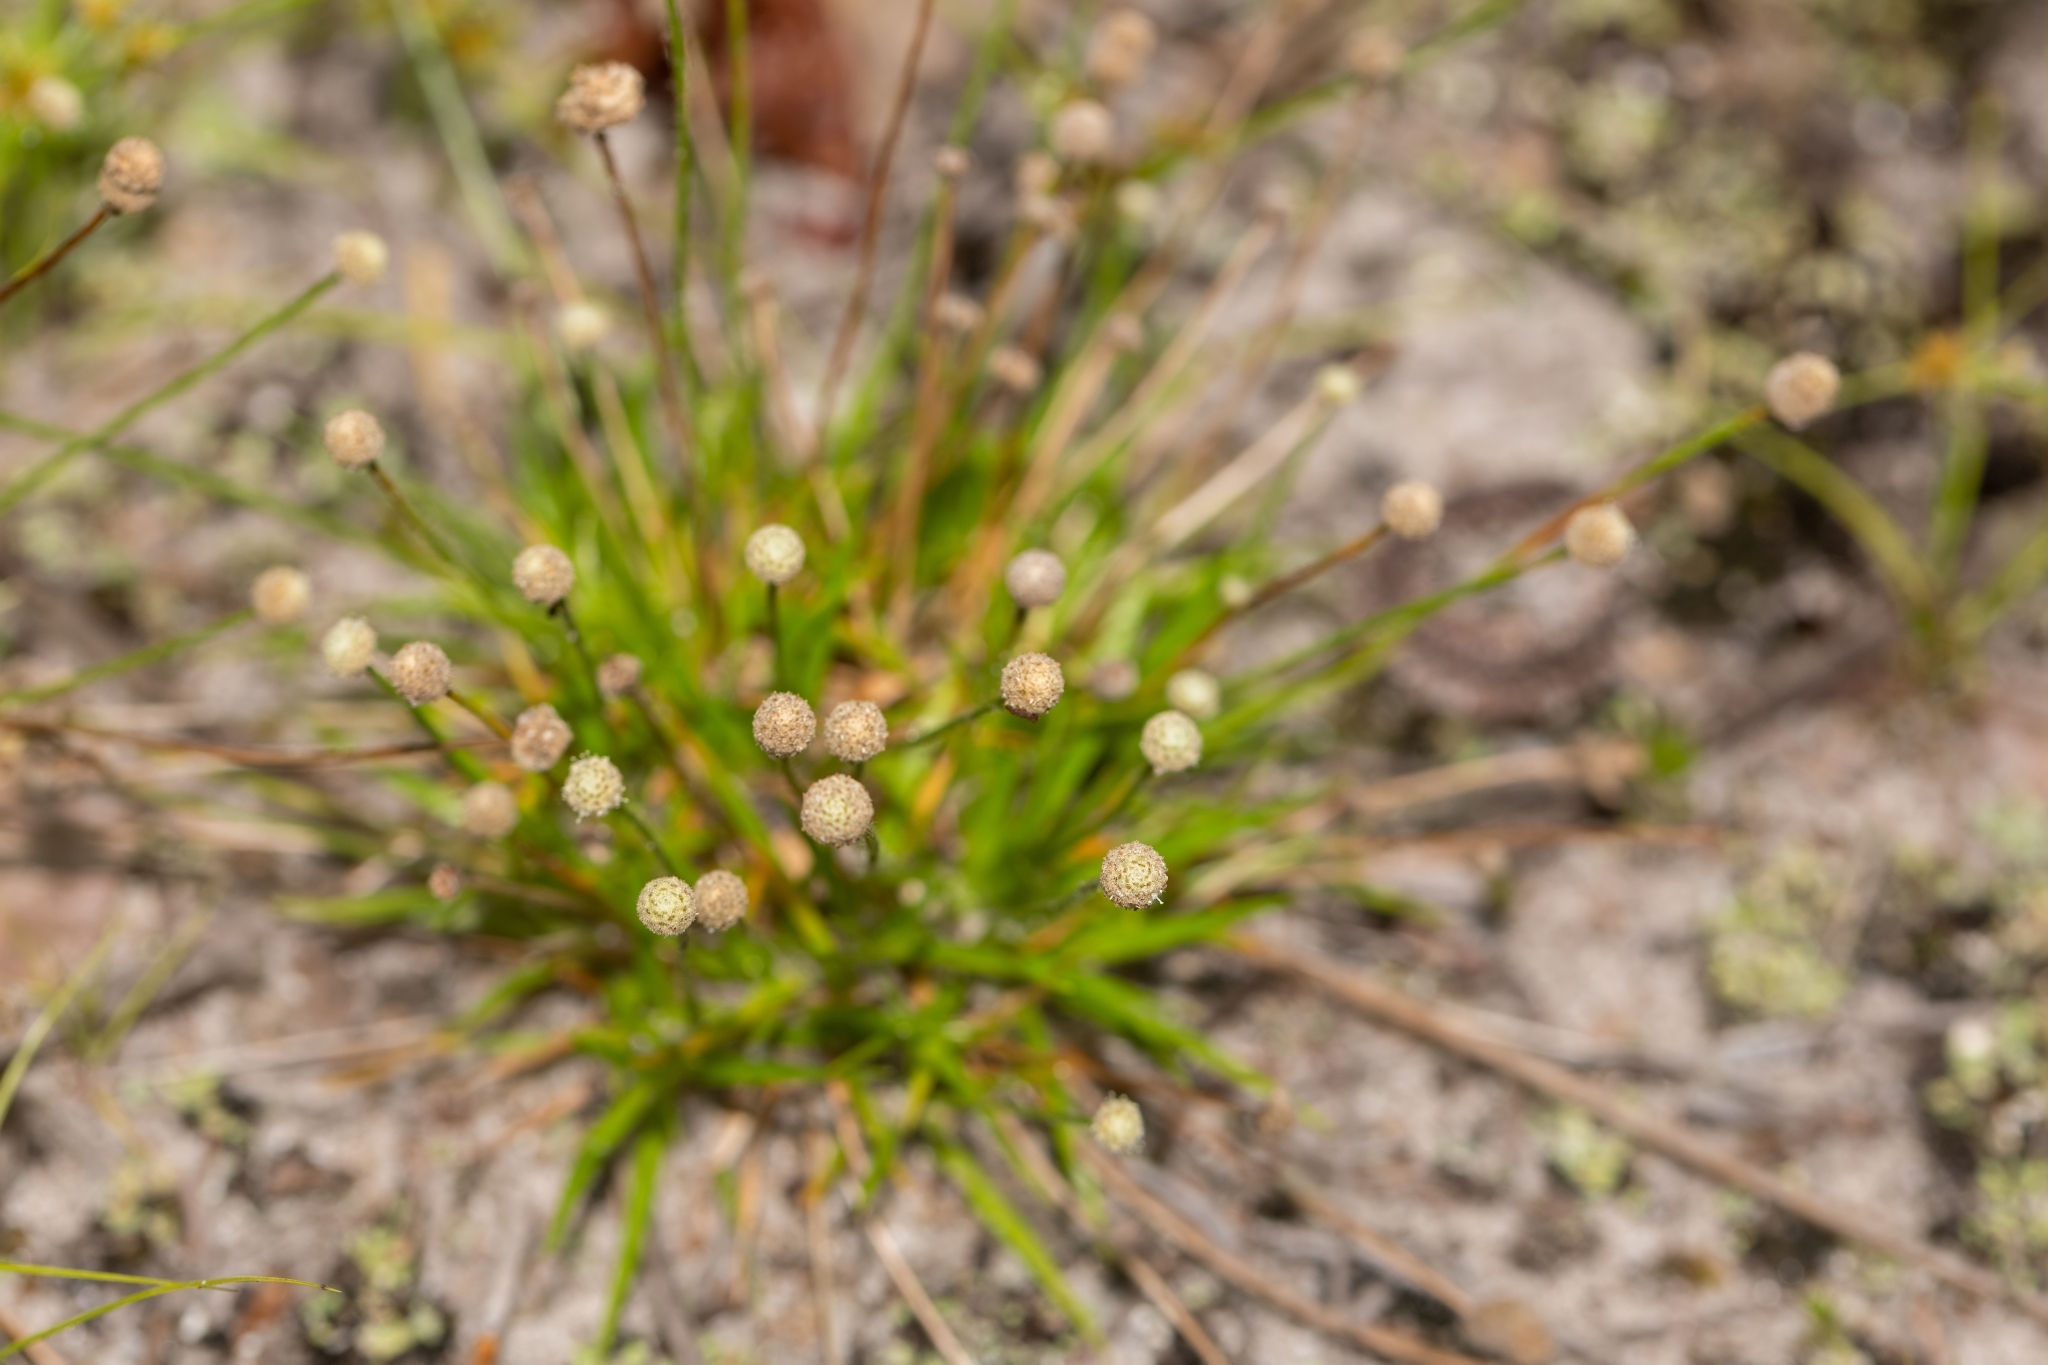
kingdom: Plantae
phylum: Tracheophyta
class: Liliopsida
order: Poales
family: Eriocaulaceae
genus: Paepalanthus
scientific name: Paepalanthus minus
